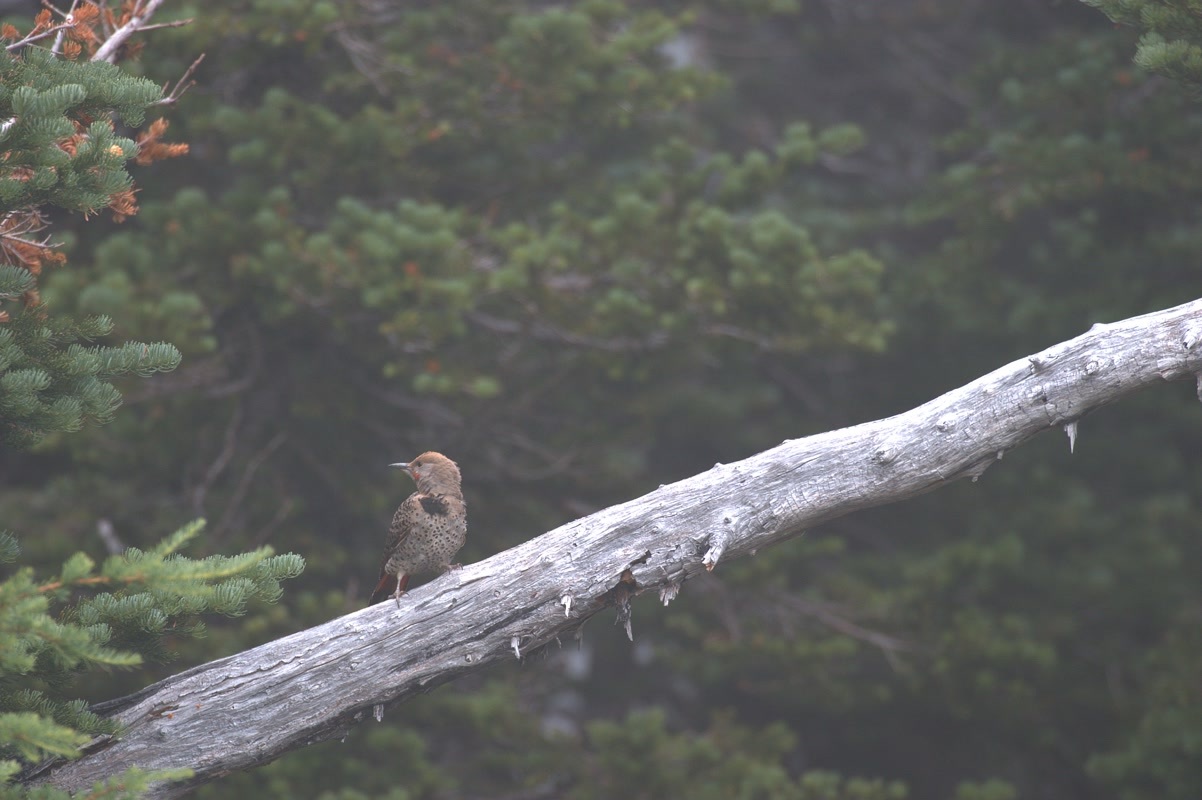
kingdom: Animalia
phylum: Chordata
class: Aves
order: Piciformes
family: Picidae
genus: Colaptes
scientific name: Colaptes auratus
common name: Northern flicker
